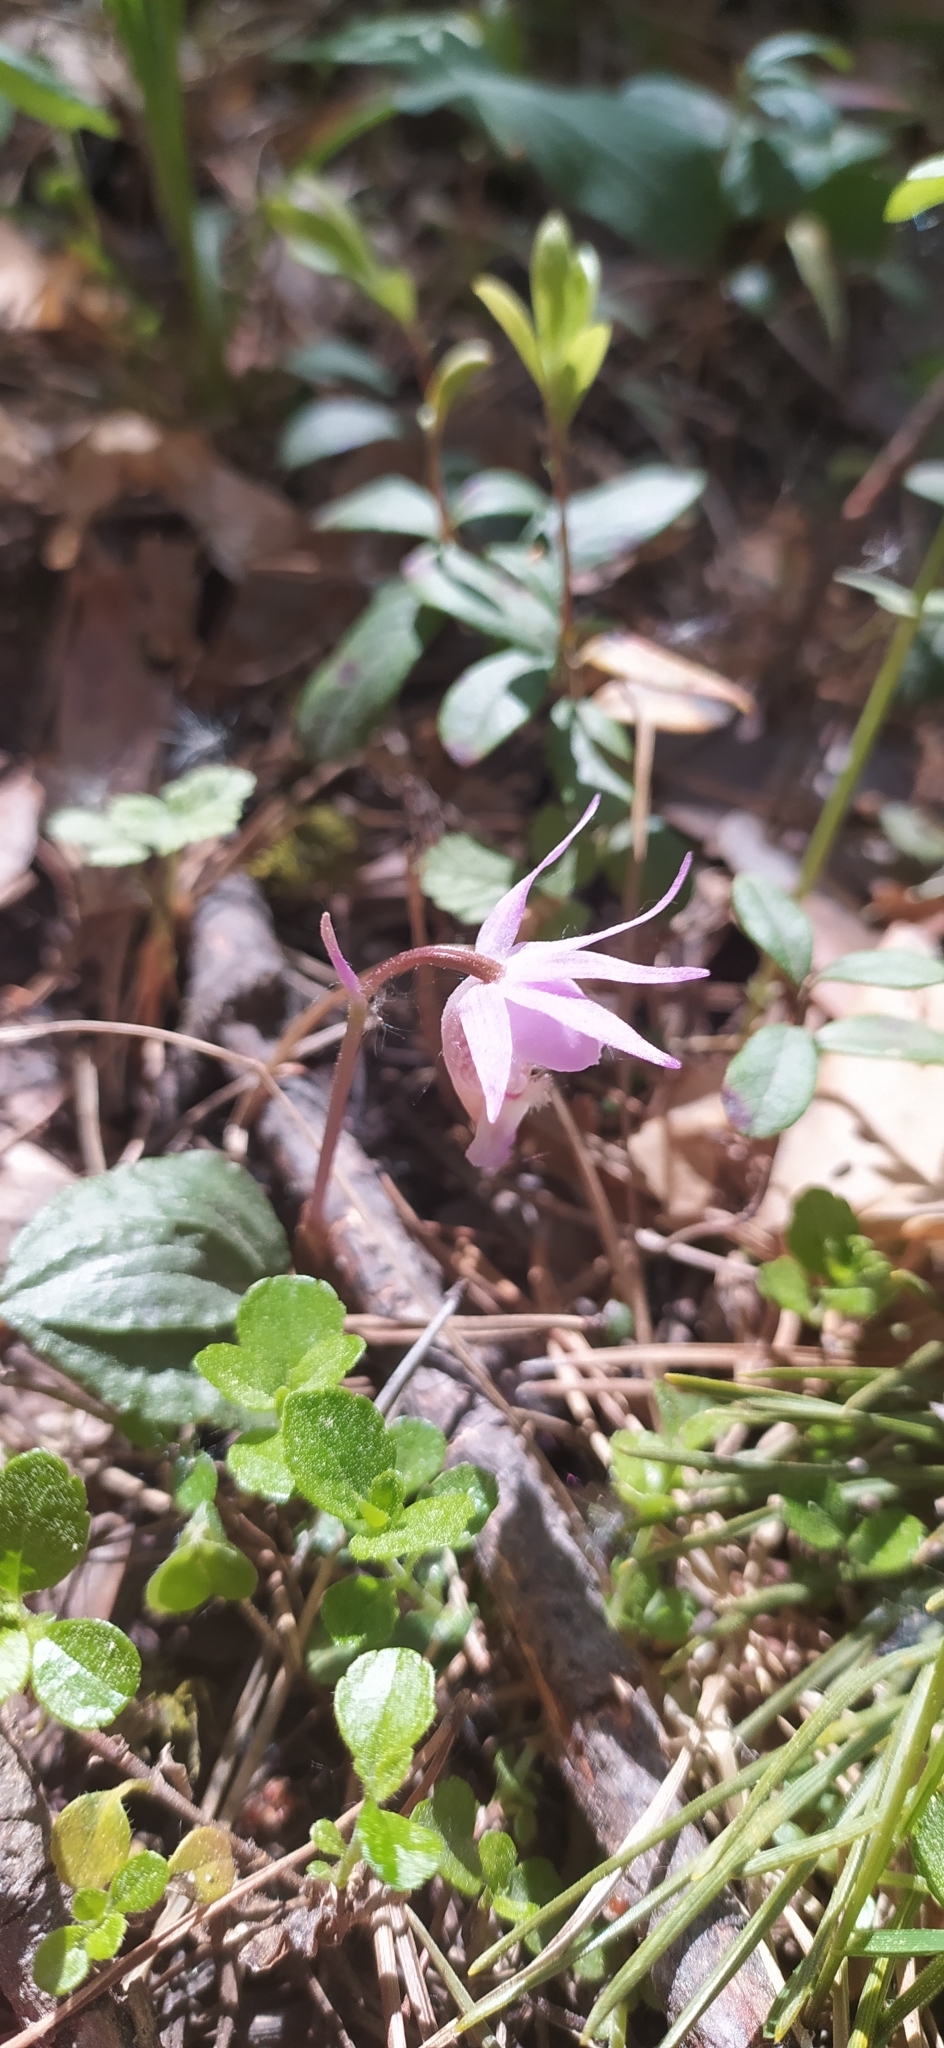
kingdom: Plantae
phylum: Tracheophyta
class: Liliopsida
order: Asparagales
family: Orchidaceae
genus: Calypso
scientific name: Calypso bulbosa
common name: Calypso
